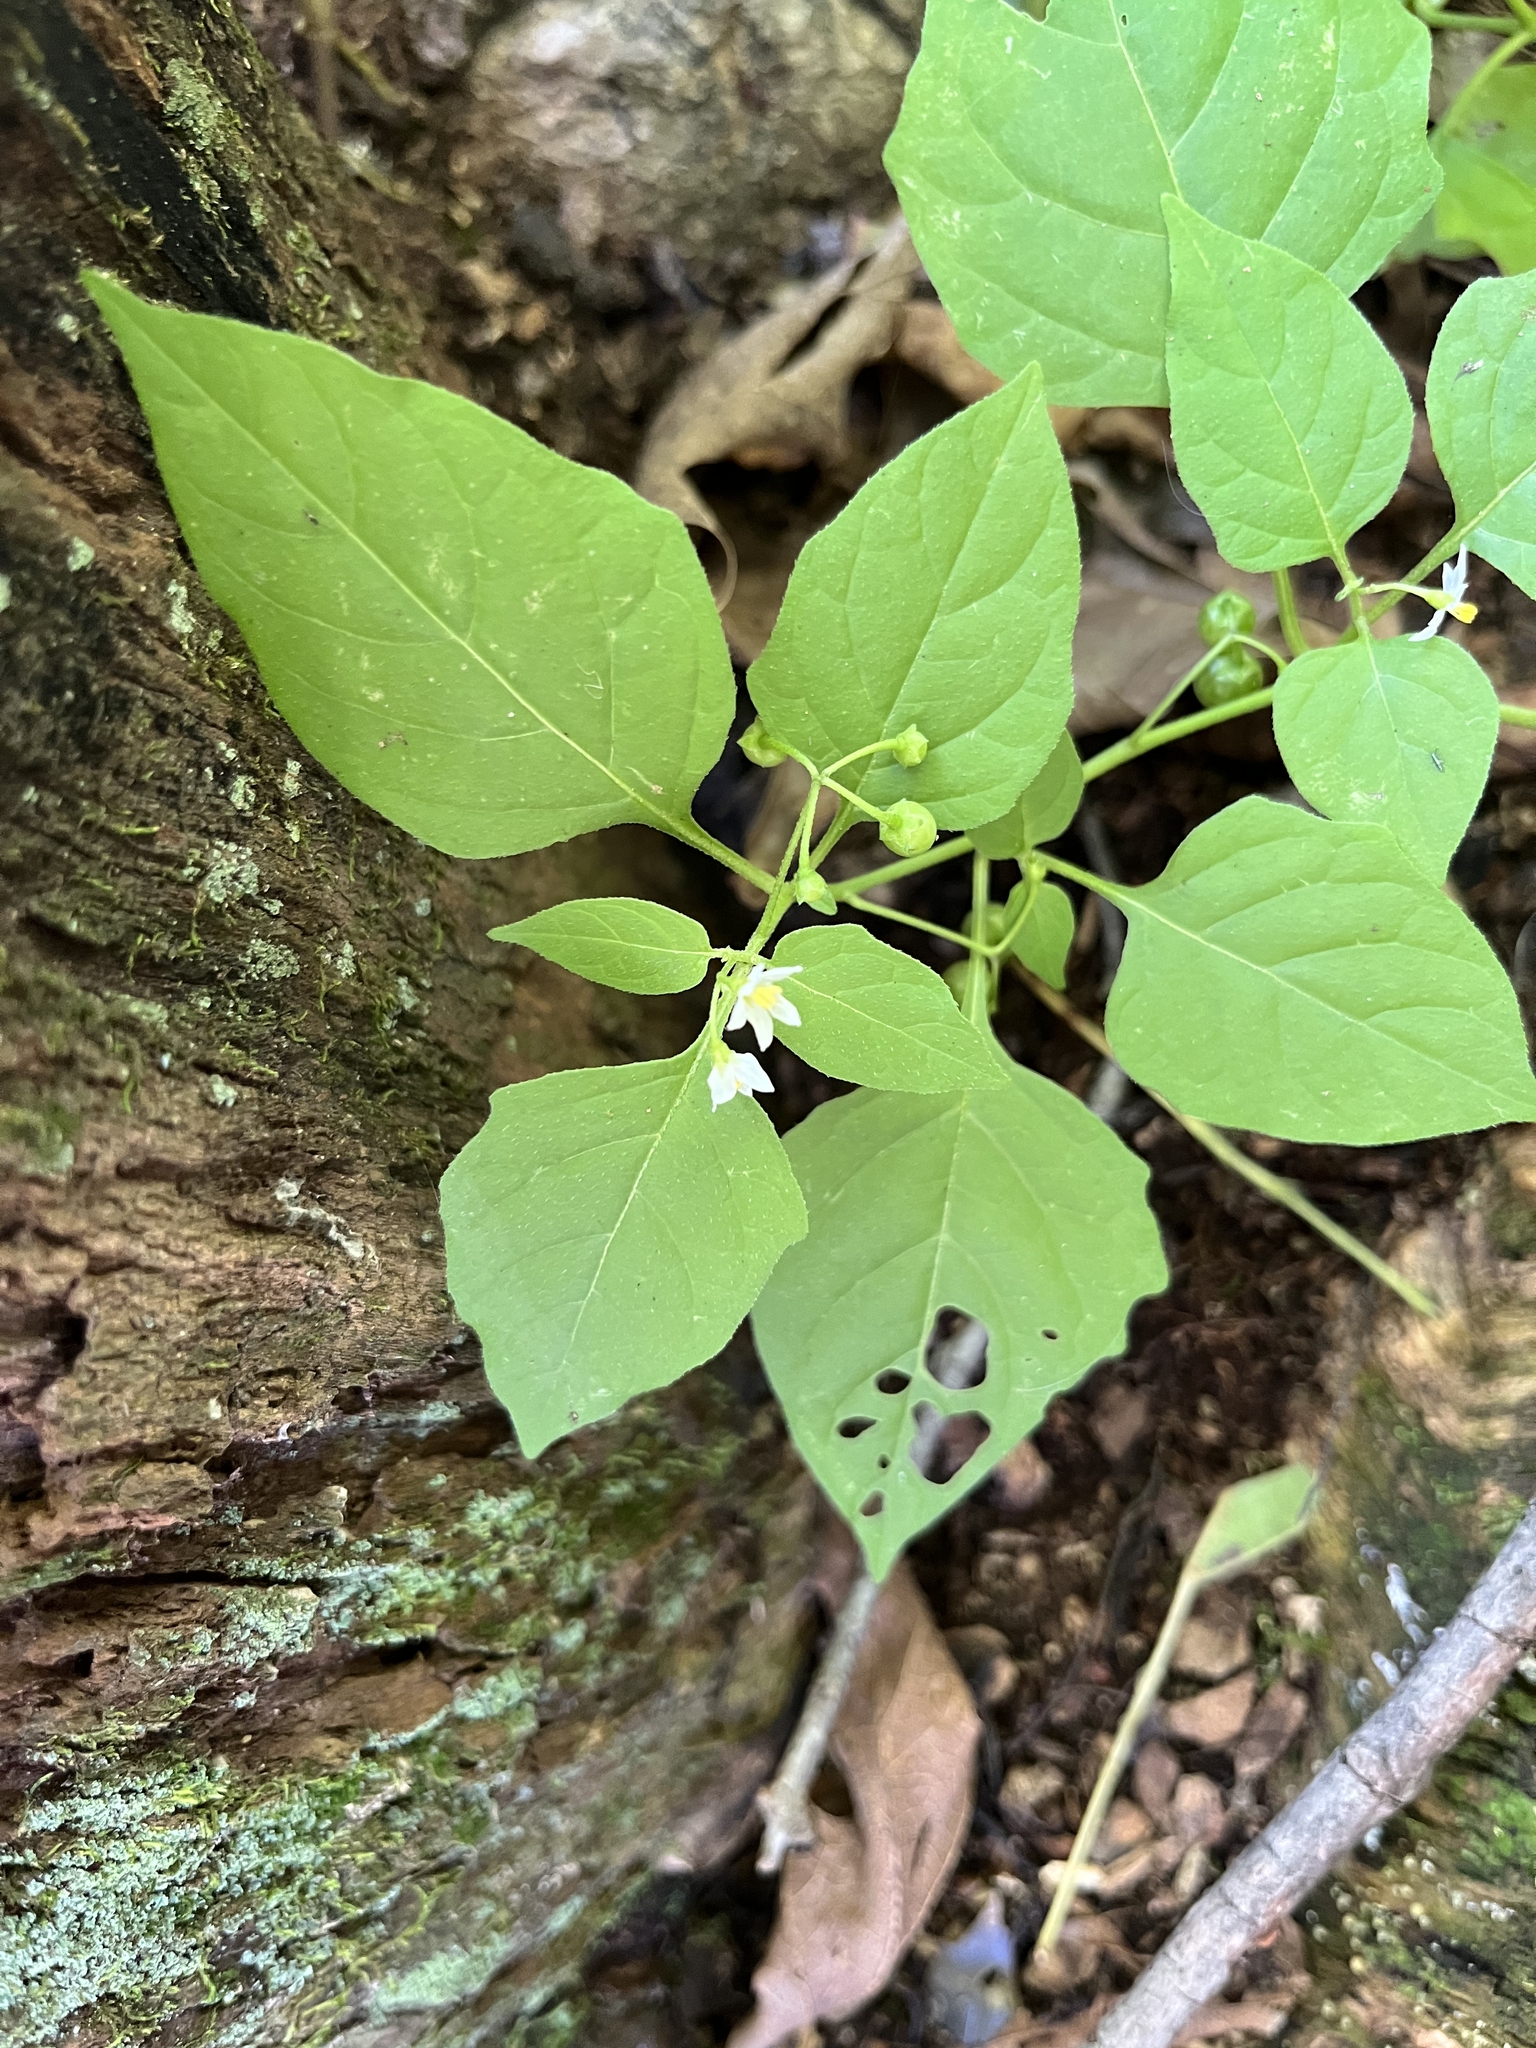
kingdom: Plantae
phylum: Tracheophyta
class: Magnoliopsida
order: Solanales
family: Solanaceae
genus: Solanum
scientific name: Solanum emulans
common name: Eastern black nightshade
